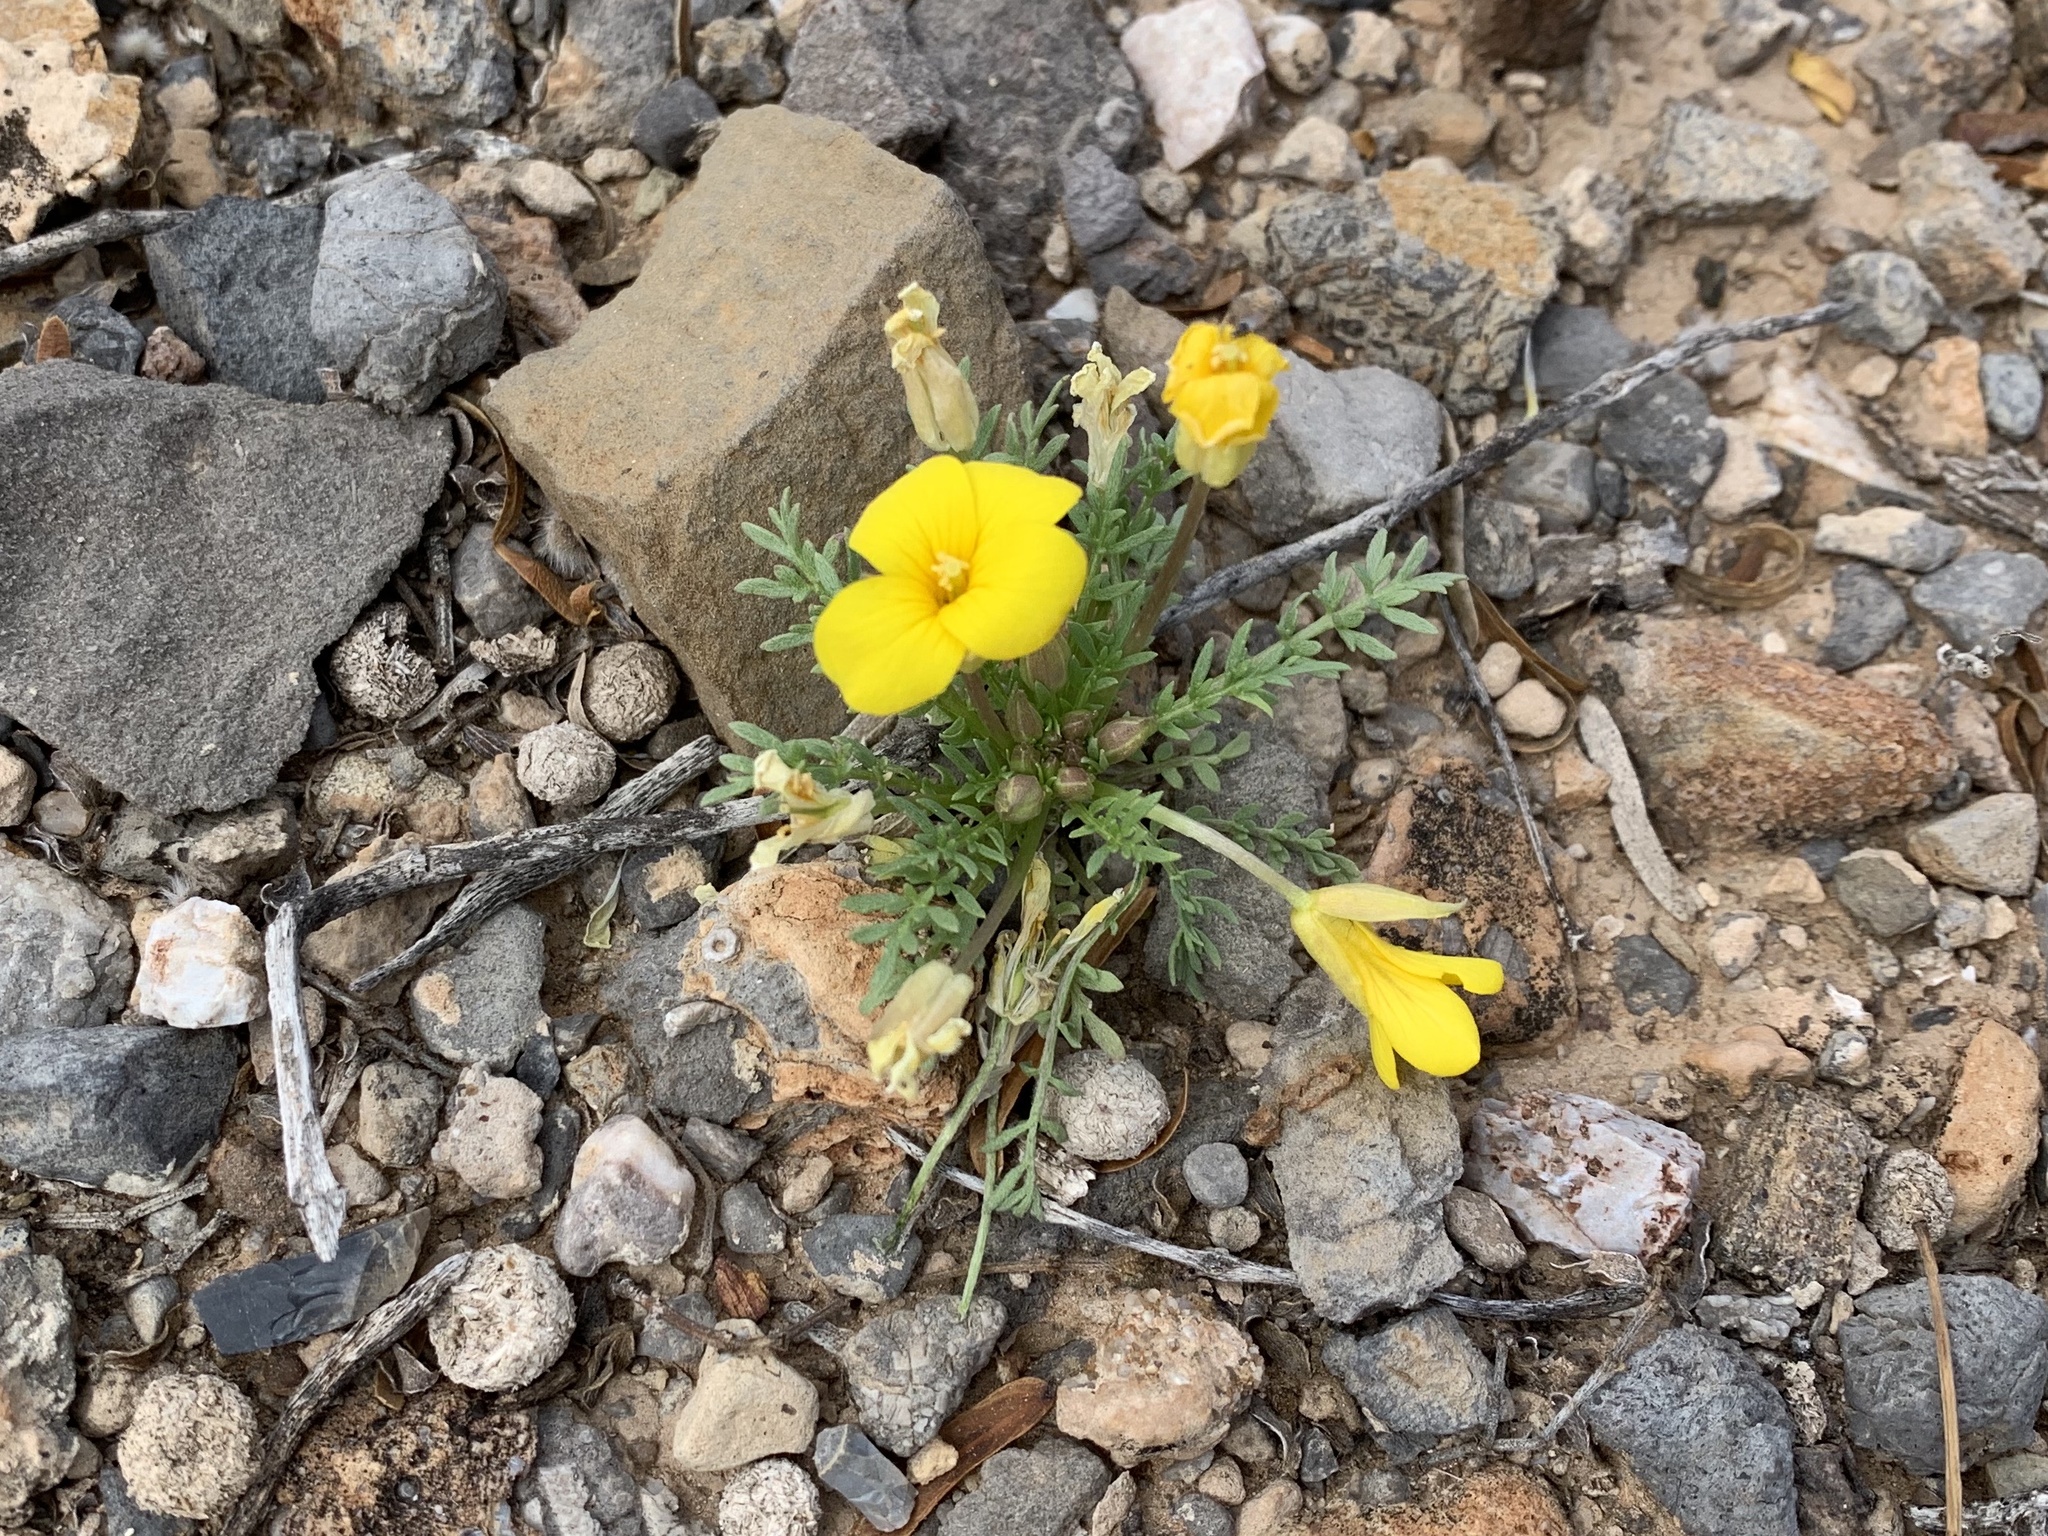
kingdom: Plantae
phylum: Tracheophyta
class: Magnoliopsida
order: Brassicales
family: Brassicaceae
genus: Selenia
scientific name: Selenia dissecta
